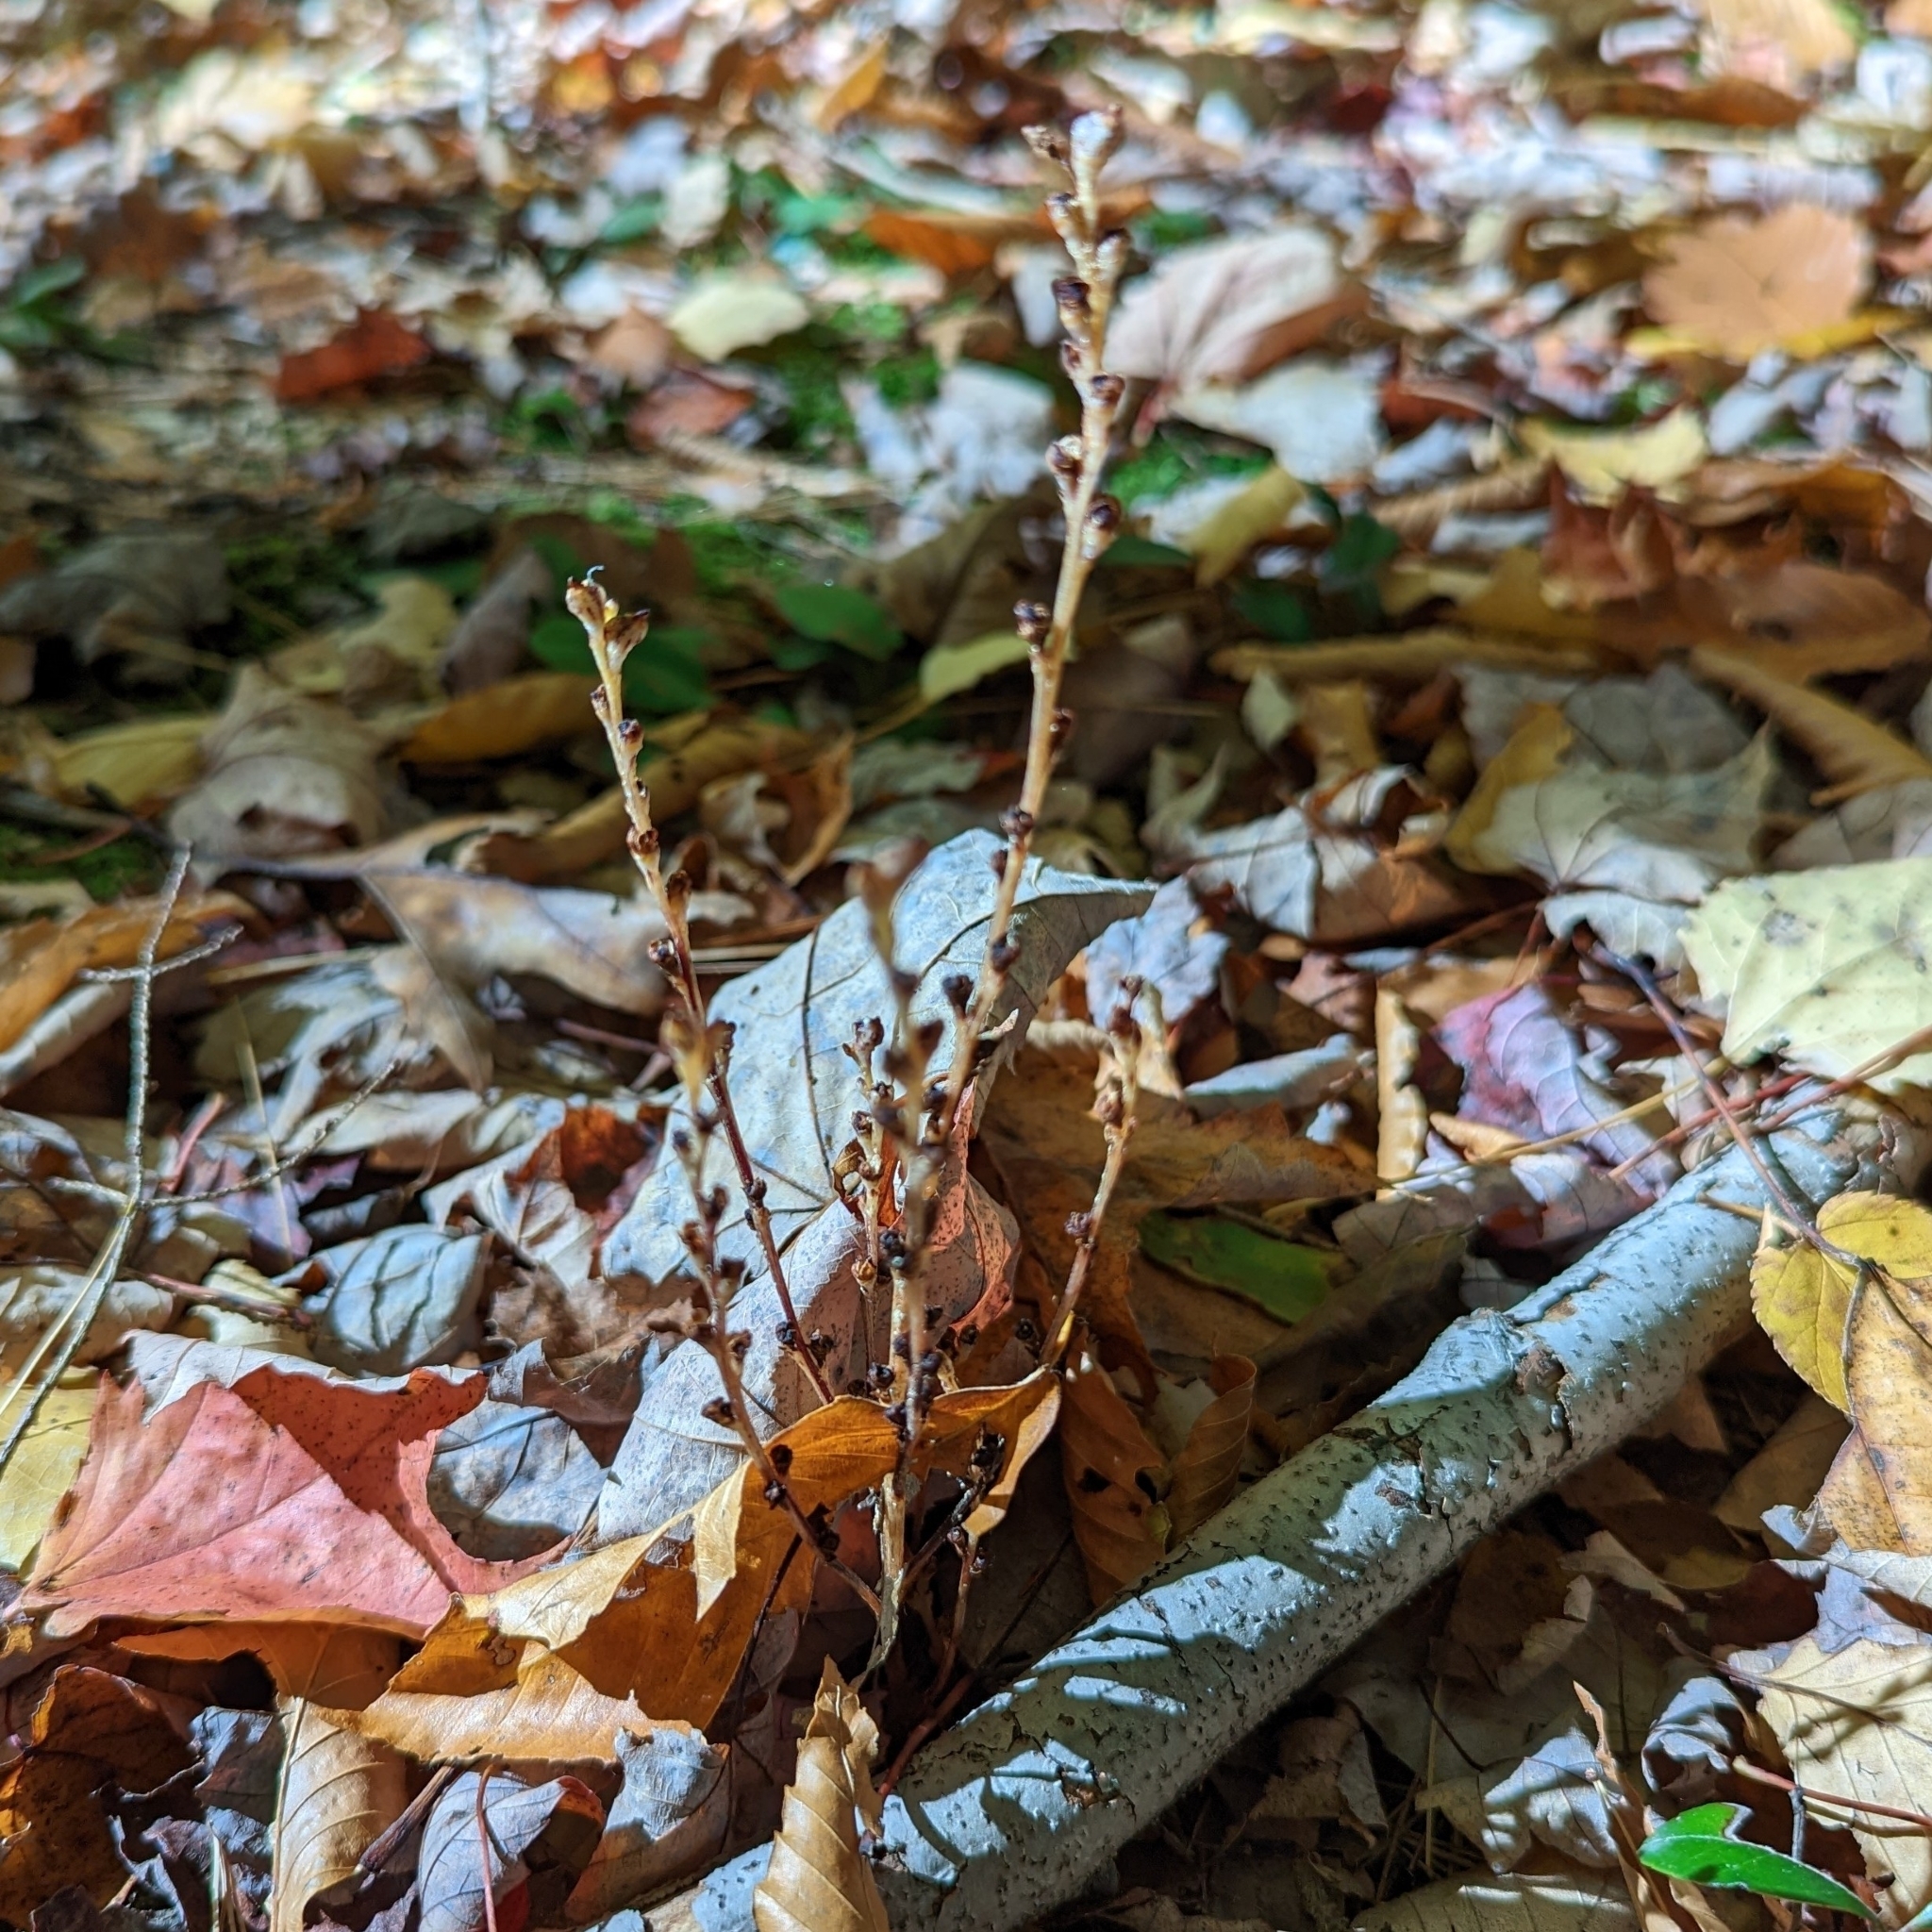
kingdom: Plantae
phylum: Tracheophyta
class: Magnoliopsida
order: Lamiales
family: Orobanchaceae
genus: Epifagus
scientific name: Epifagus virginiana
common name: Beechdrops
